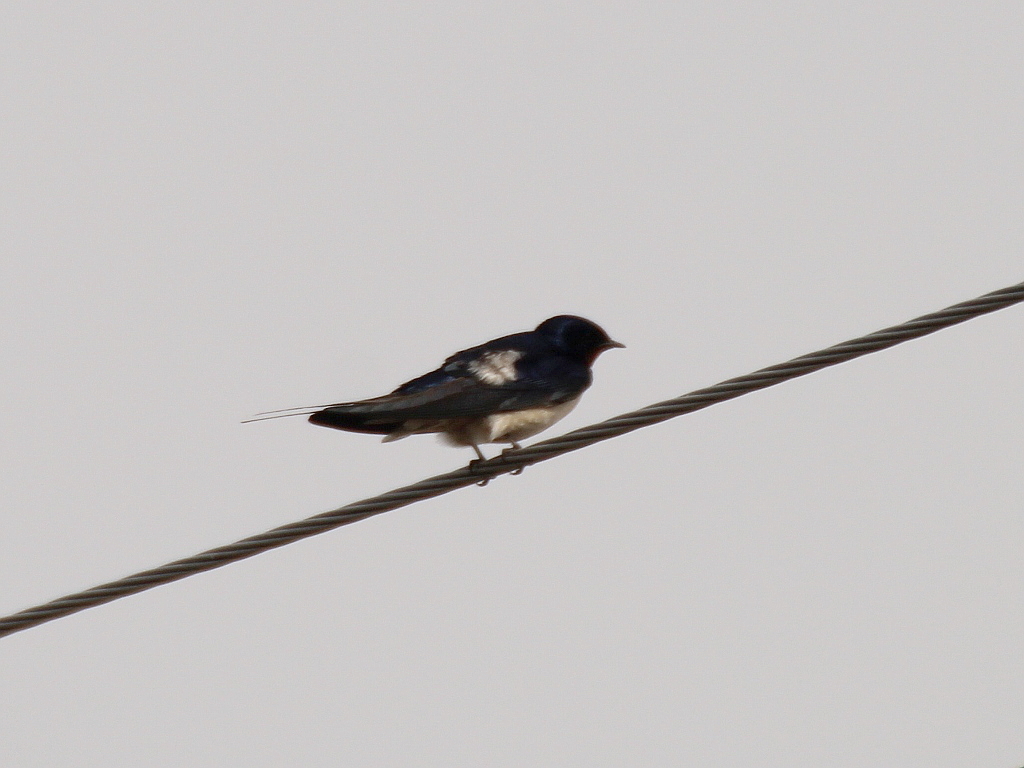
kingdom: Animalia
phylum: Chordata
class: Aves
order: Passeriformes
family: Hirundinidae
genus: Hirundo
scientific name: Hirundo rustica
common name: Barn swallow
